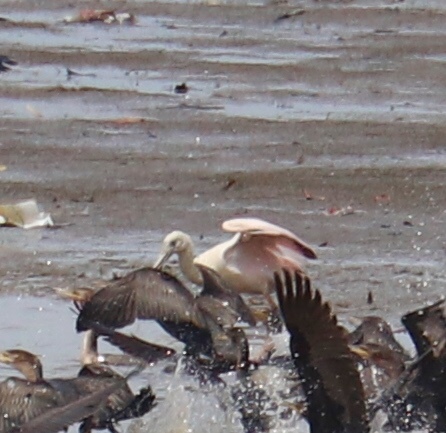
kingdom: Animalia
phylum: Chordata
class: Aves
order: Pelecaniformes
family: Threskiornithidae
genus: Platalea
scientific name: Platalea ajaja
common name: Roseate spoonbill
